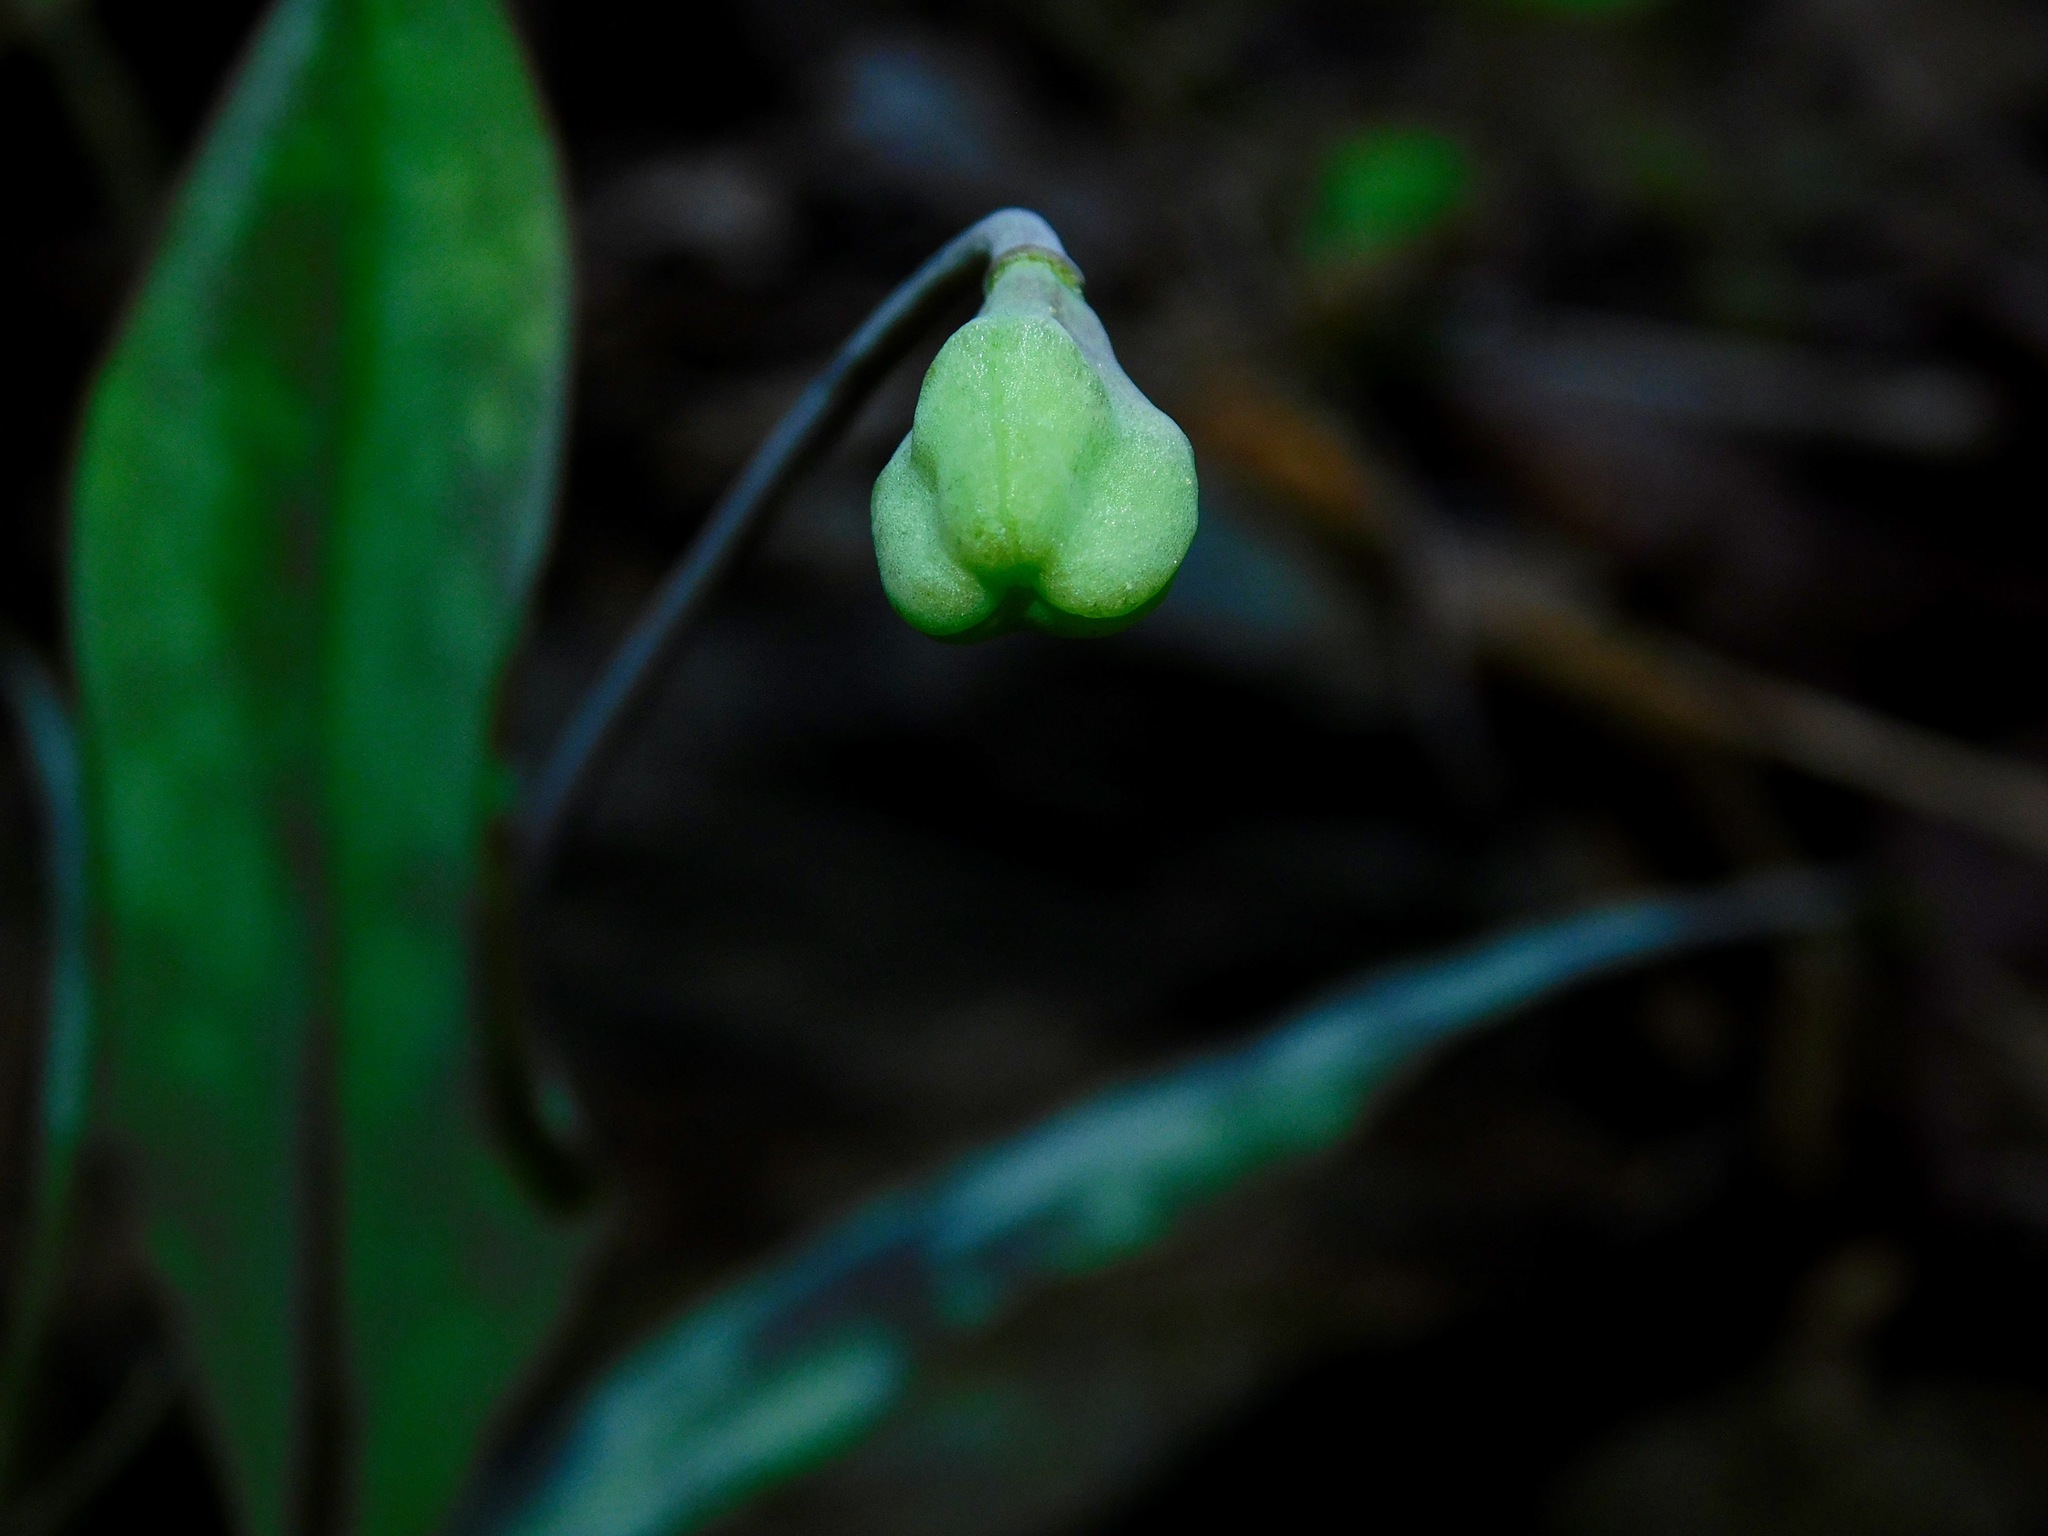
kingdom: Plantae
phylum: Tracheophyta
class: Liliopsida
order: Liliales
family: Liliaceae
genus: Erythronium
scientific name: Erythronium umbilicatum
